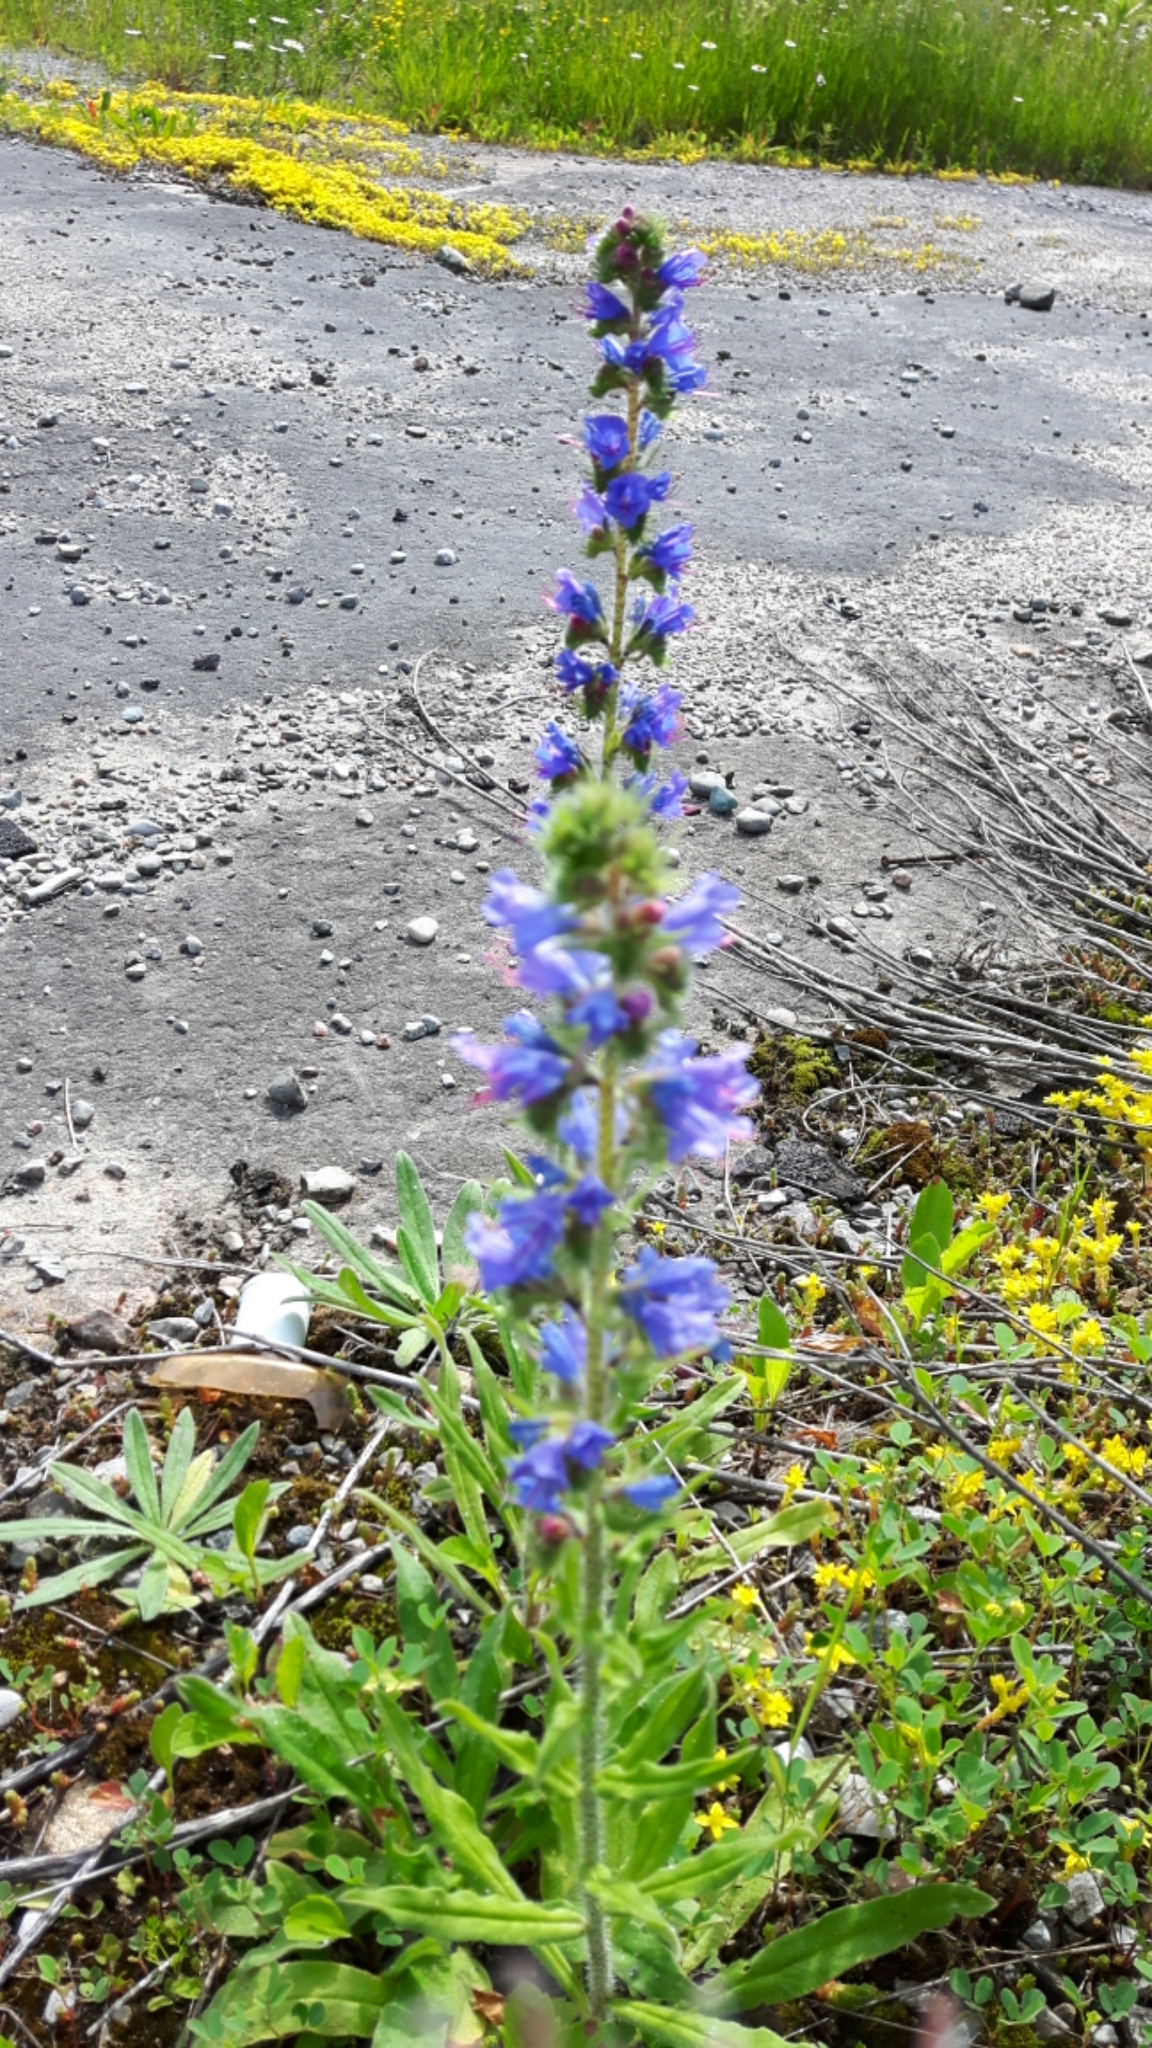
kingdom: Plantae
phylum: Tracheophyta
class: Magnoliopsida
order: Boraginales
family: Boraginaceae
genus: Echium
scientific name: Echium vulgare
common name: Common viper's bugloss
